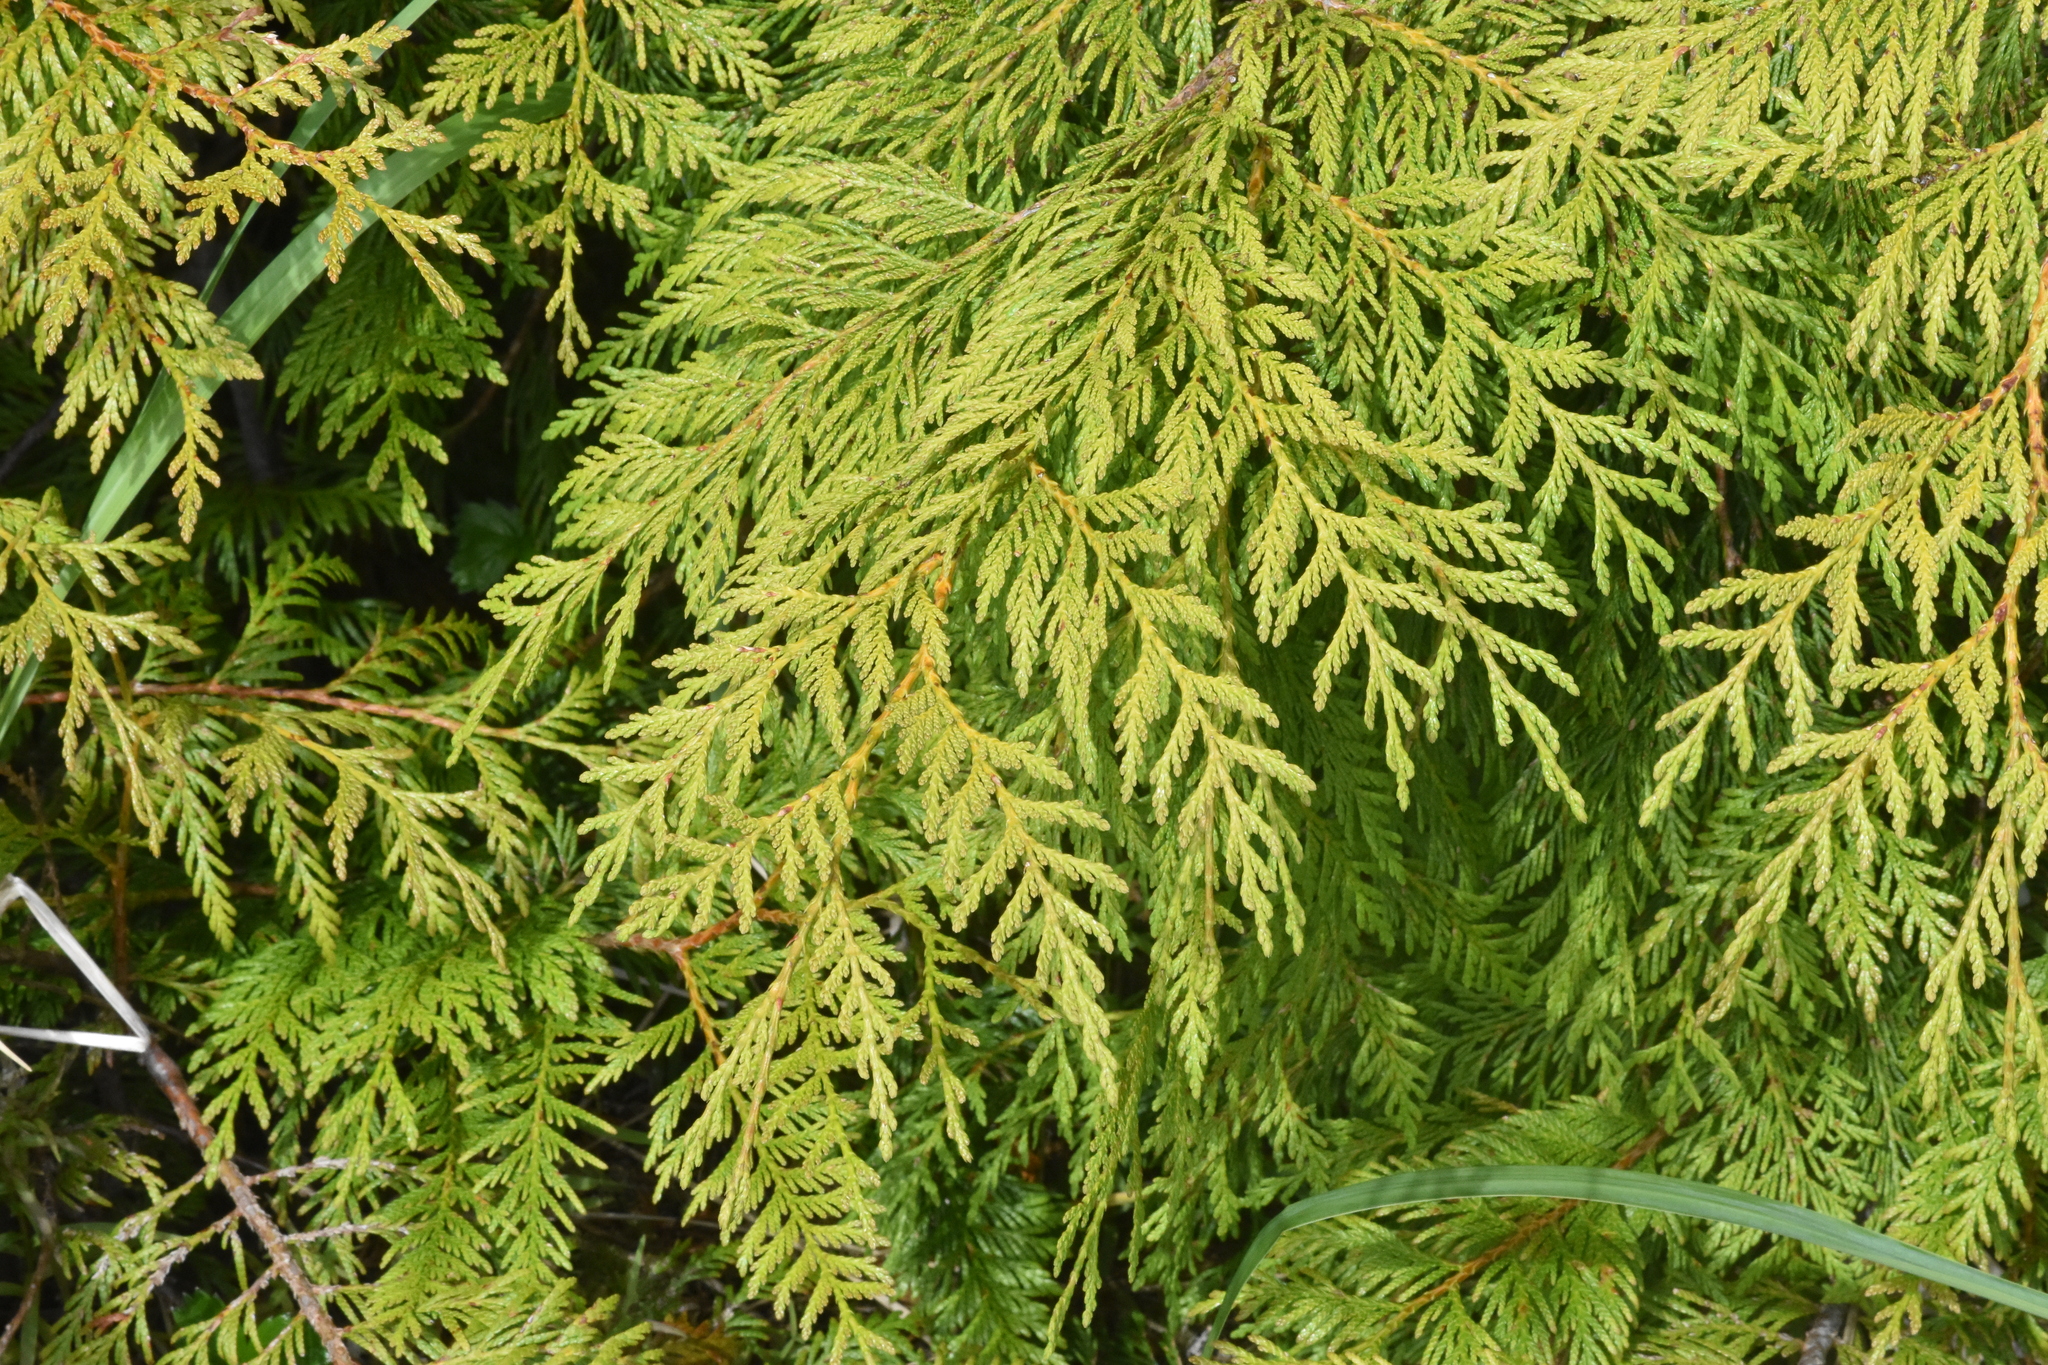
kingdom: Plantae
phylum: Tracheophyta
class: Pinopsida
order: Pinales
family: Cupressaceae
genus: Thuja
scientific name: Thuja plicata
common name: Western red-cedar
